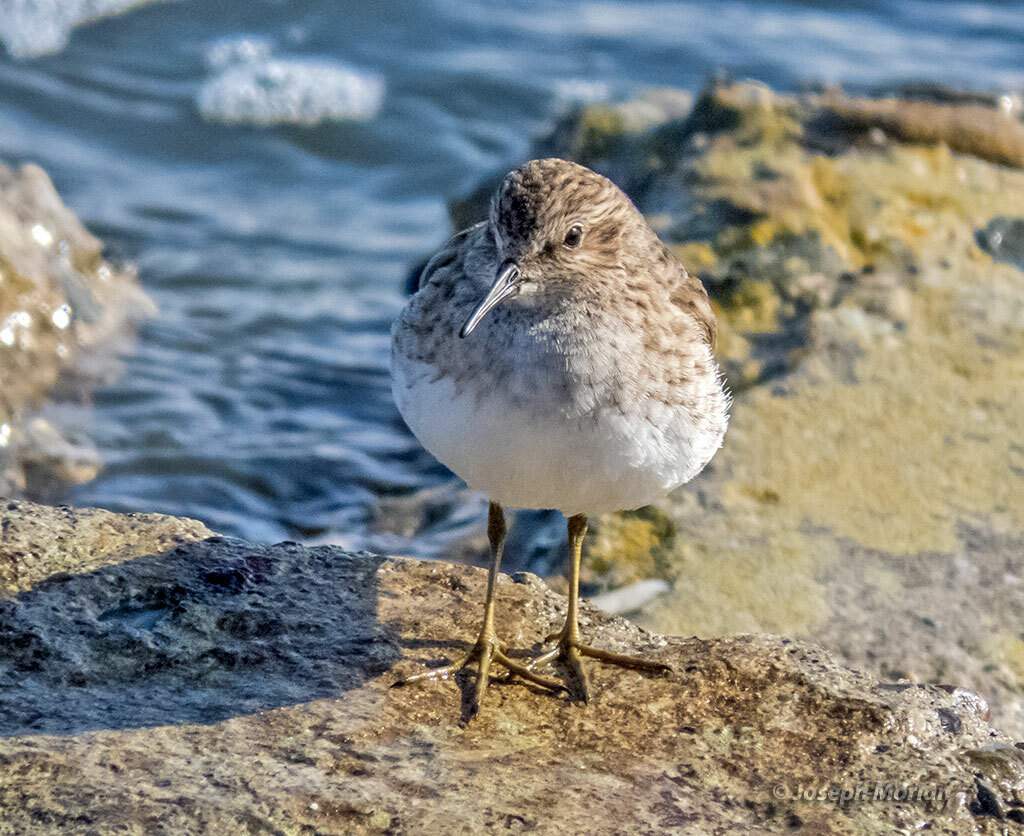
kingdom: Animalia
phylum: Chordata
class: Aves
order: Charadriiformes
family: Scolopacidae
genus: Calidris
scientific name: Calidris minutilla
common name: Least sandpiper
